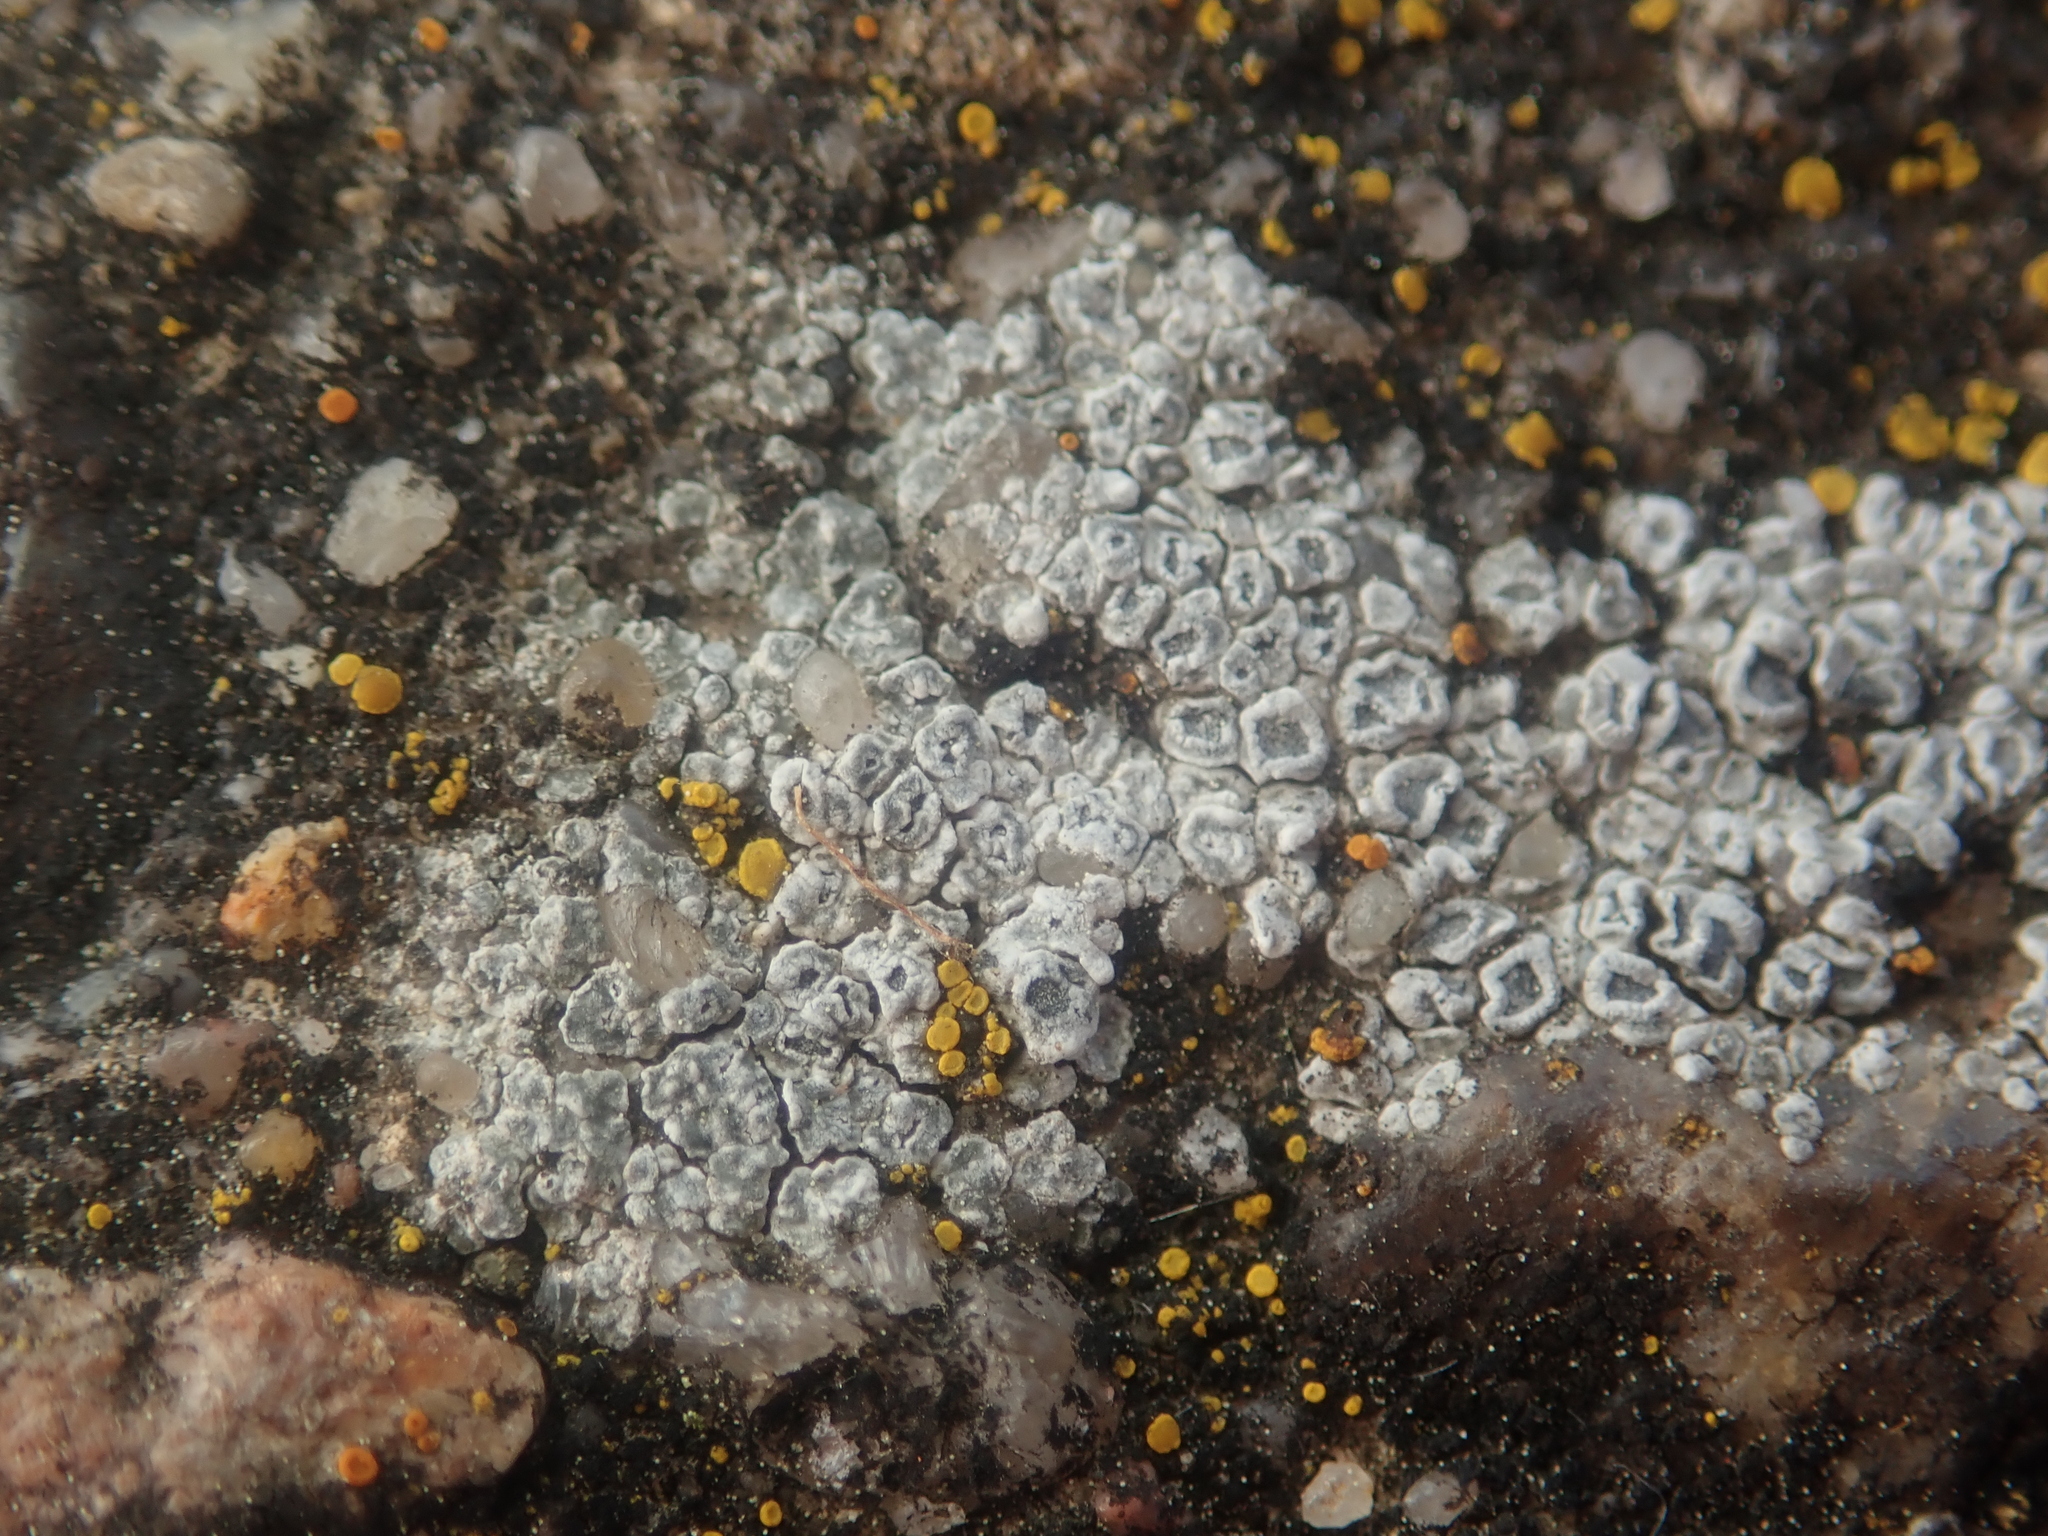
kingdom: Fungi
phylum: Ascomycota
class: Lecanoromycetes
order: Pertusariales
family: Megasporaceae
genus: Circinaria
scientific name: Circinaria contorta
